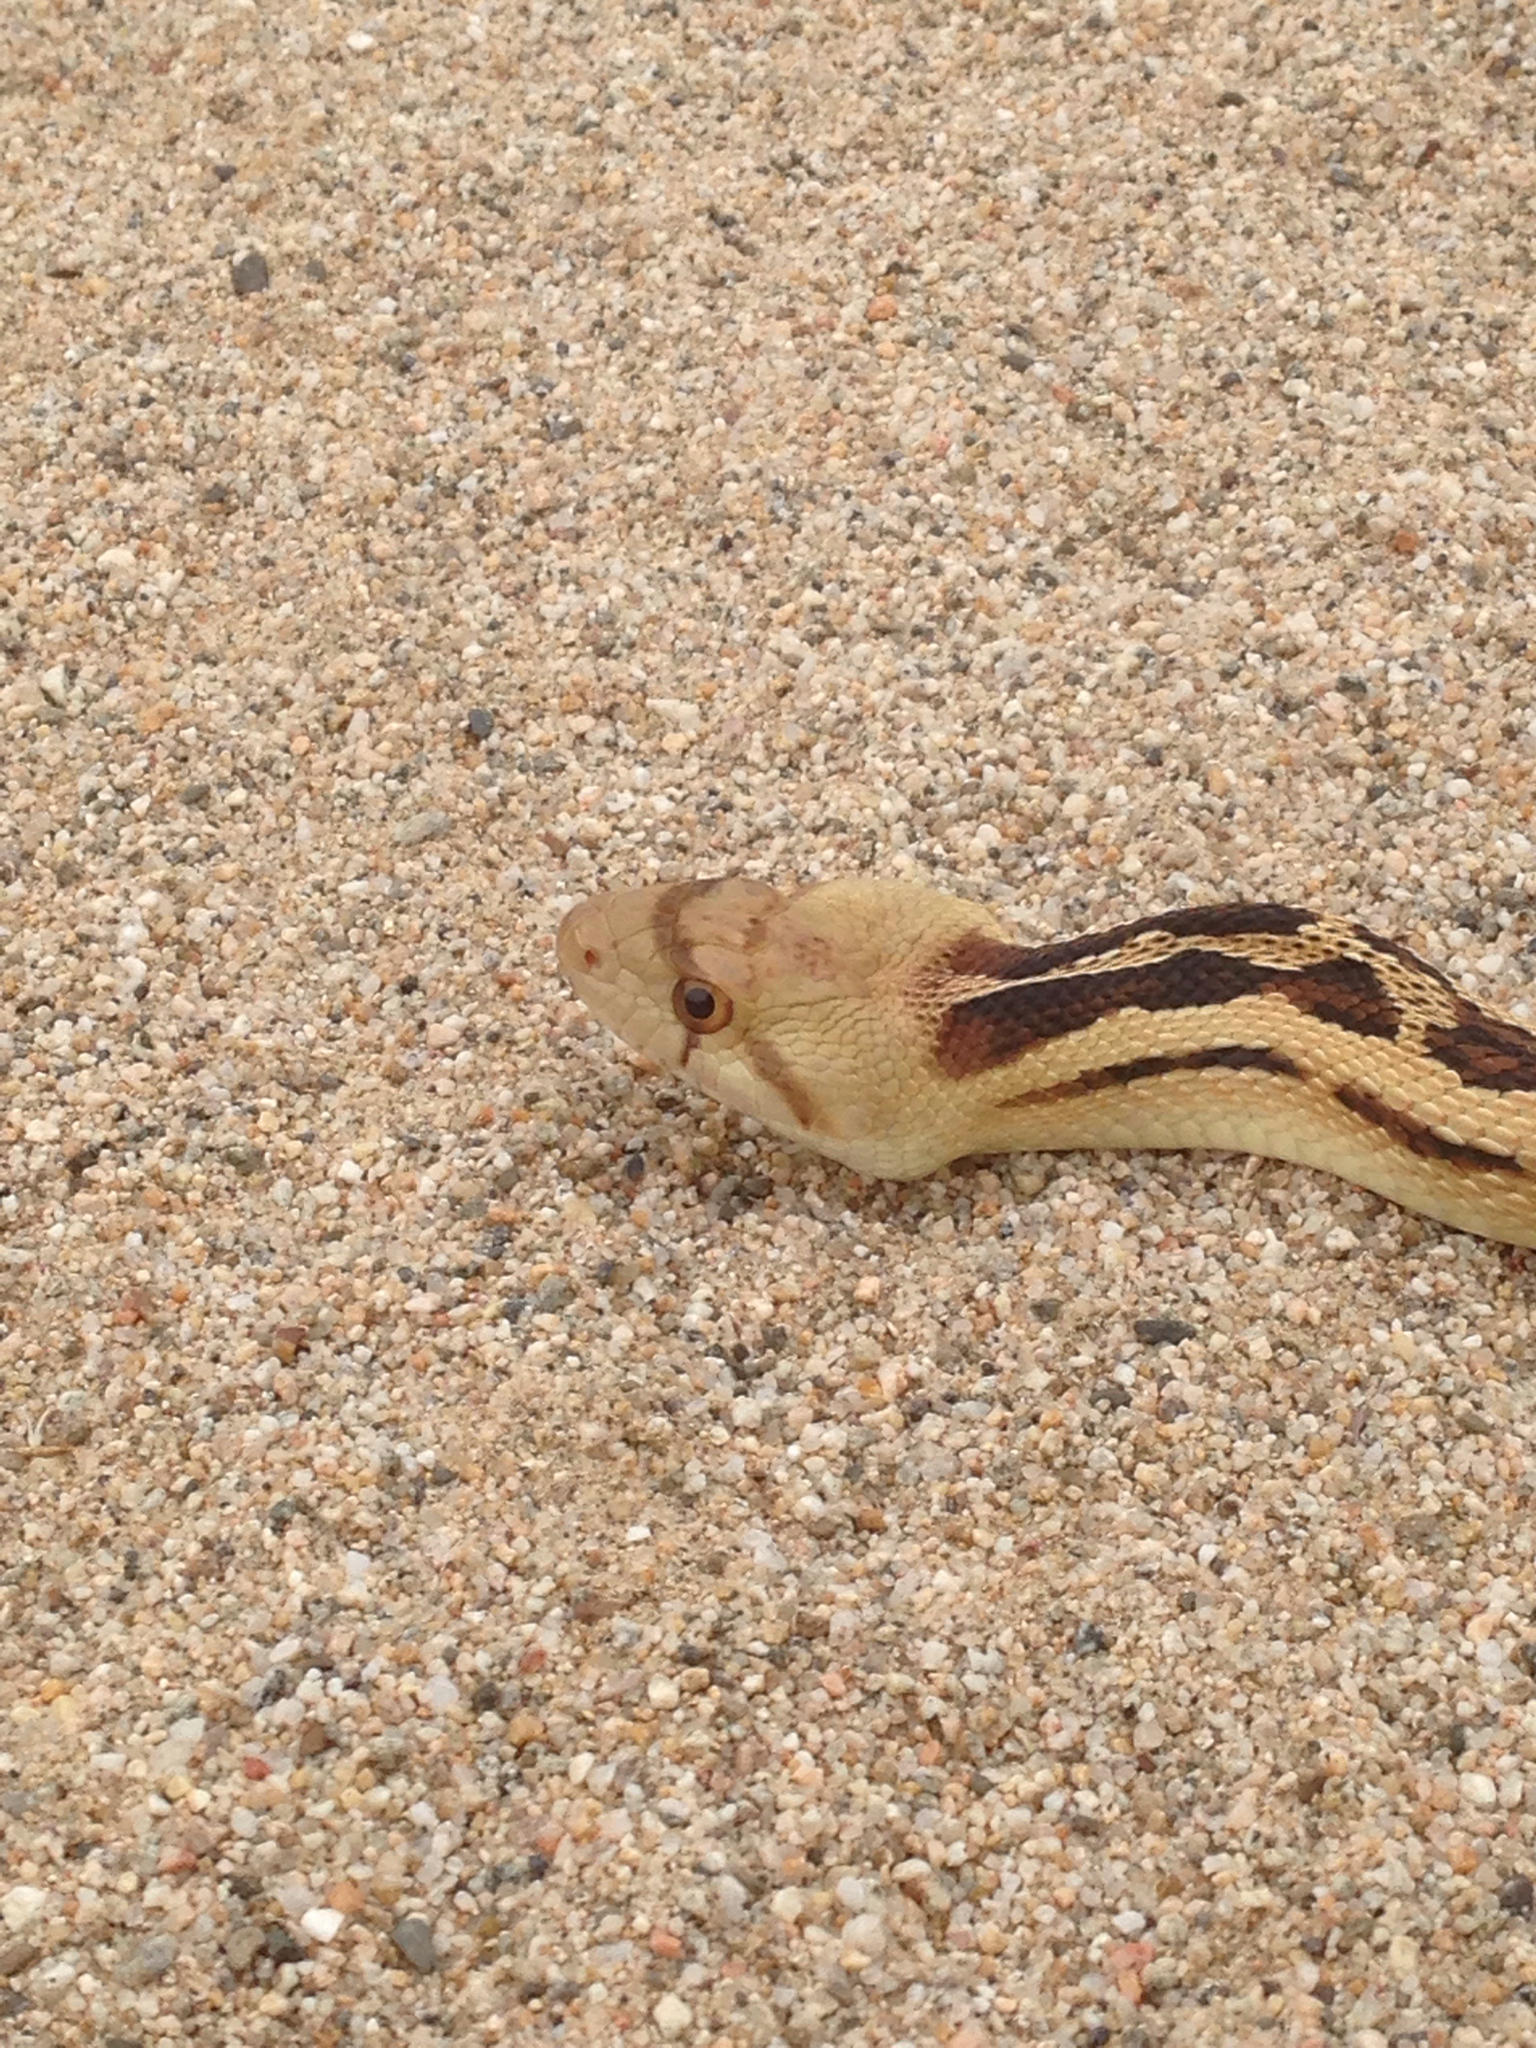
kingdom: Animalia
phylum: Chordata
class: Squamata
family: Colubridae
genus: Pituophis
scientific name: Pituophis catenifer
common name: Gopher snake
